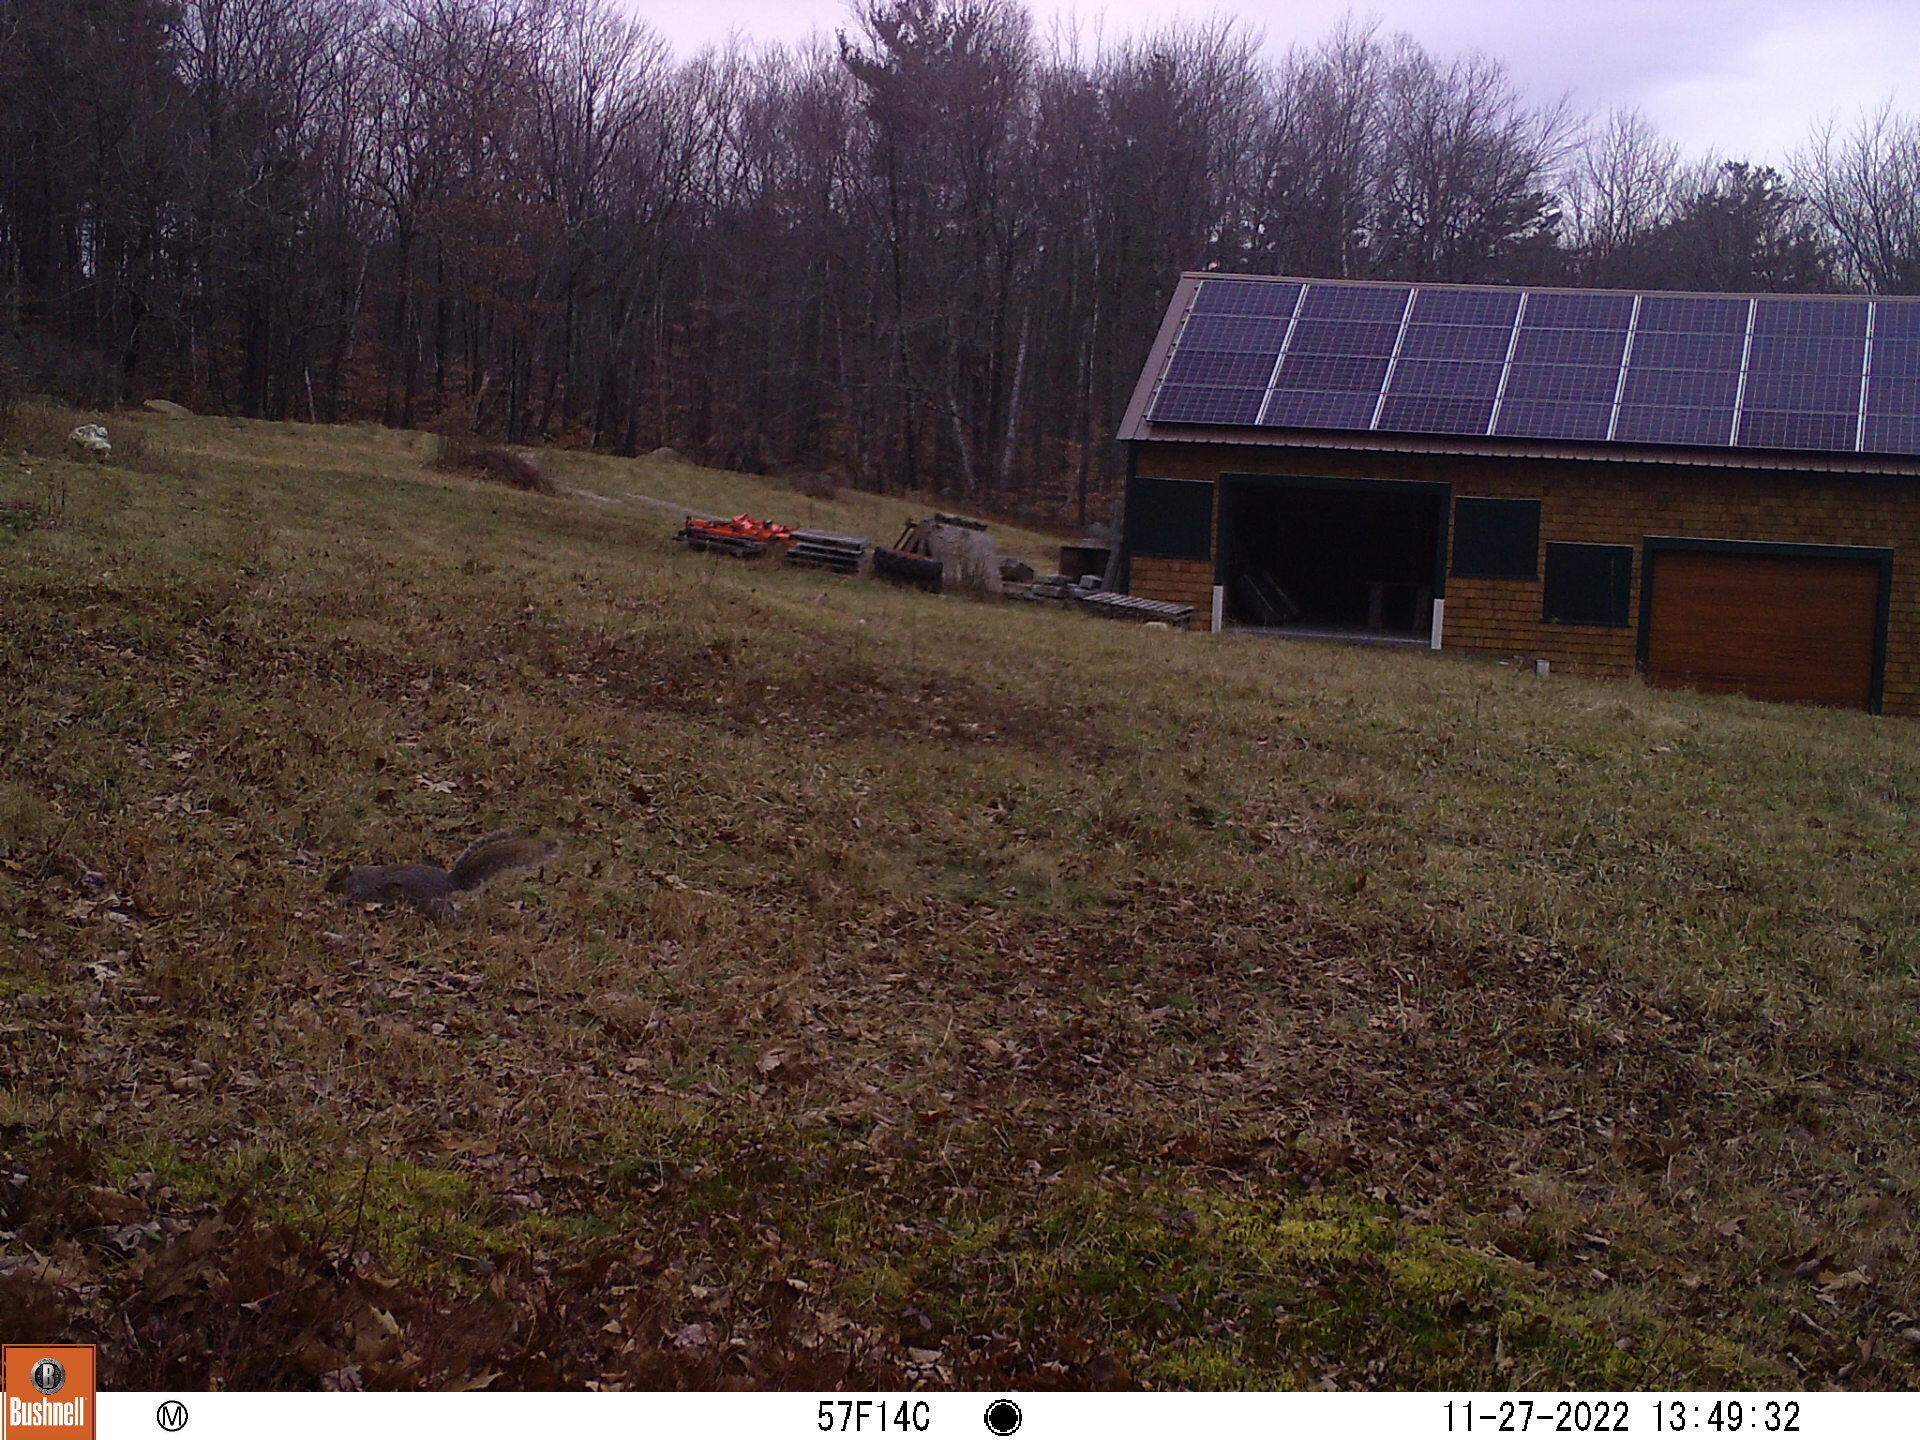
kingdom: Animalia
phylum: Chordata
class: Mammalia
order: Rodentia
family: Sciuridae
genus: Sciurus
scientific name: Sciurus carolinensis
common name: Eastern gray squirrel
